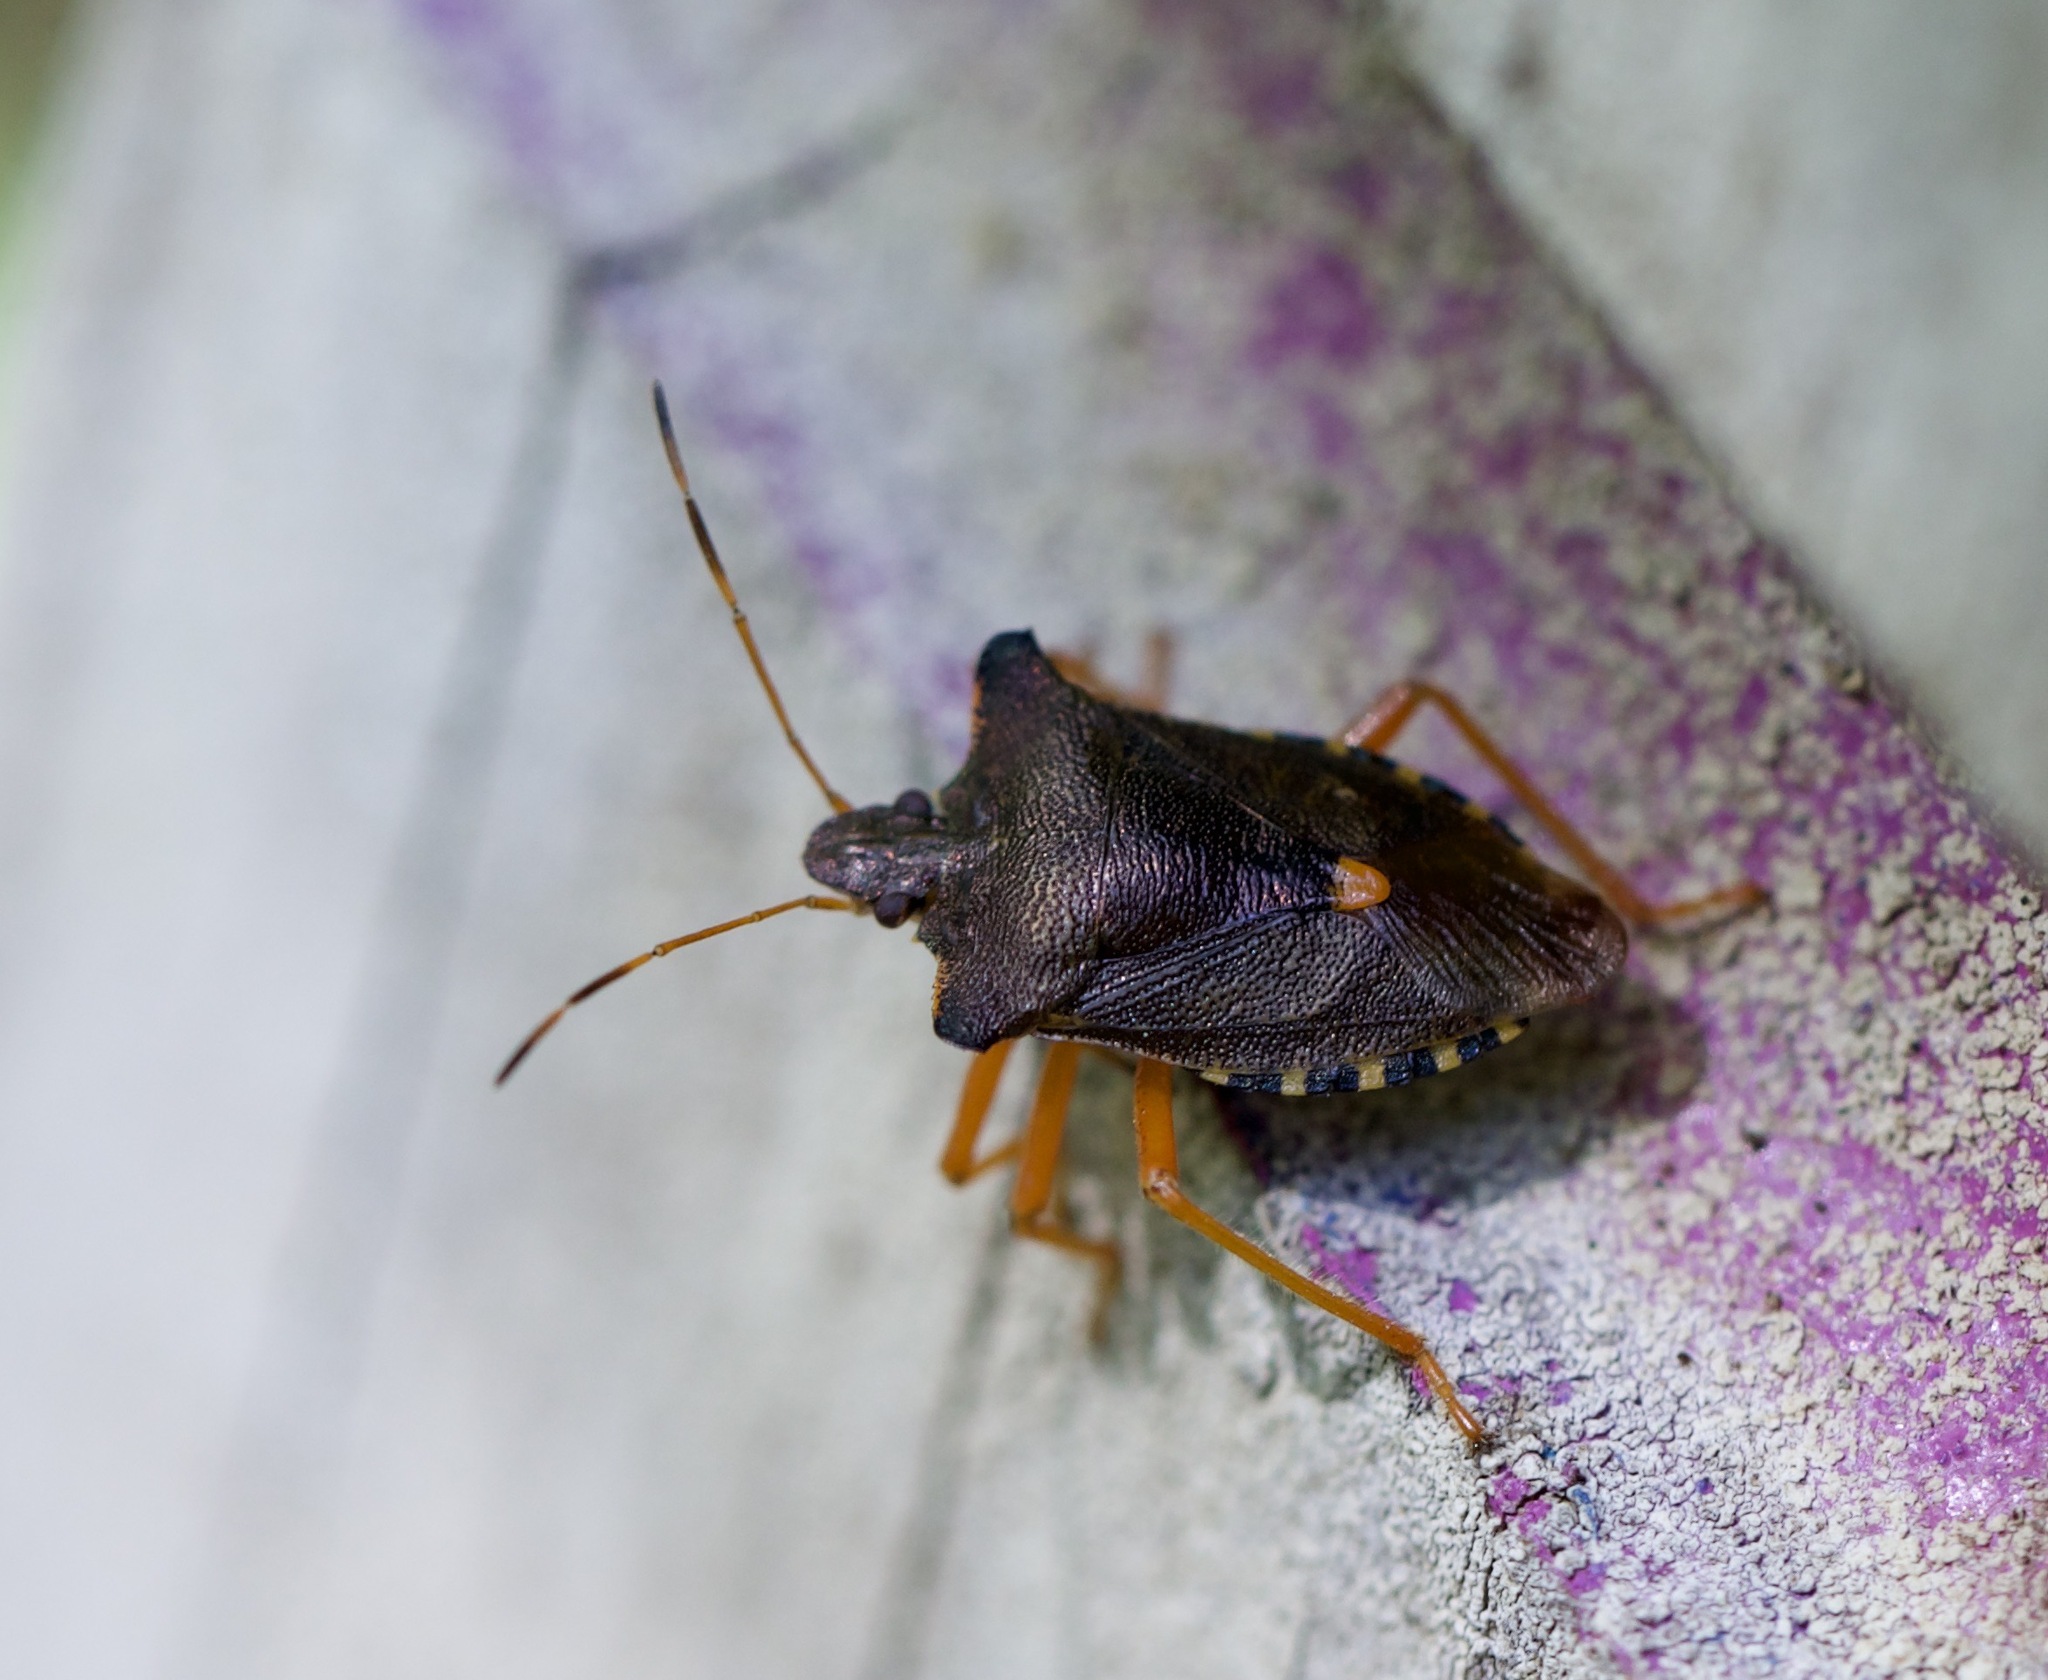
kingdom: Animalia
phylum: Arthropoda
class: Insecta
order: Hemiptera
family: Pentatomidae
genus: Pentatoma
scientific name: Pentatoma rufipes
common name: Forest bug
